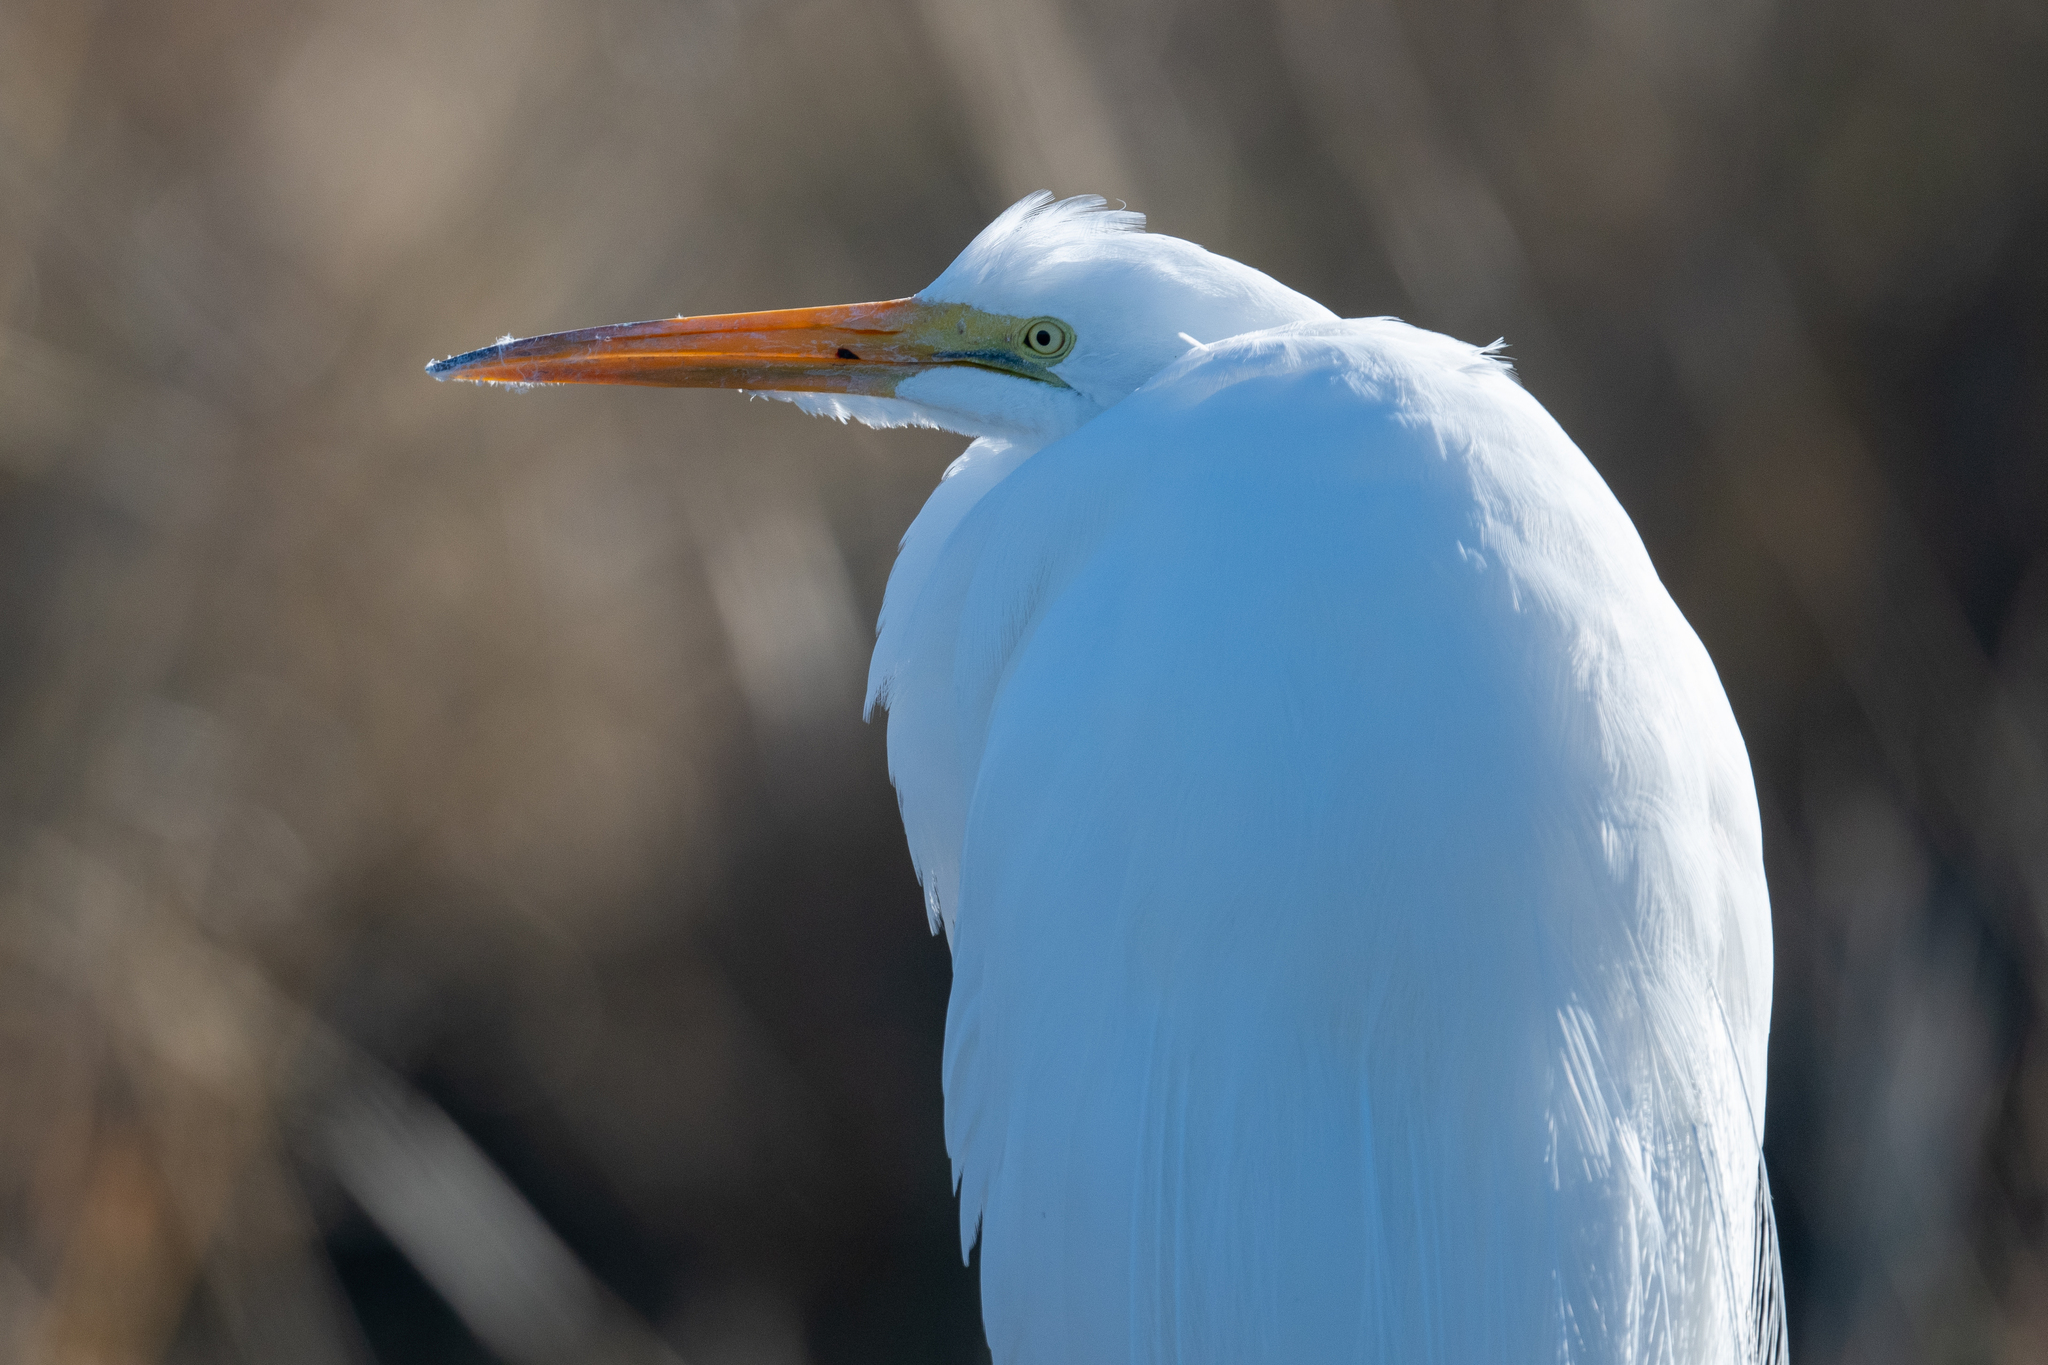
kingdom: Animalia
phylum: Chordata
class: Aves
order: Pelecaniformes
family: Ardeidae
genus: Ardea
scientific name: Ardea alba
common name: Great egret
